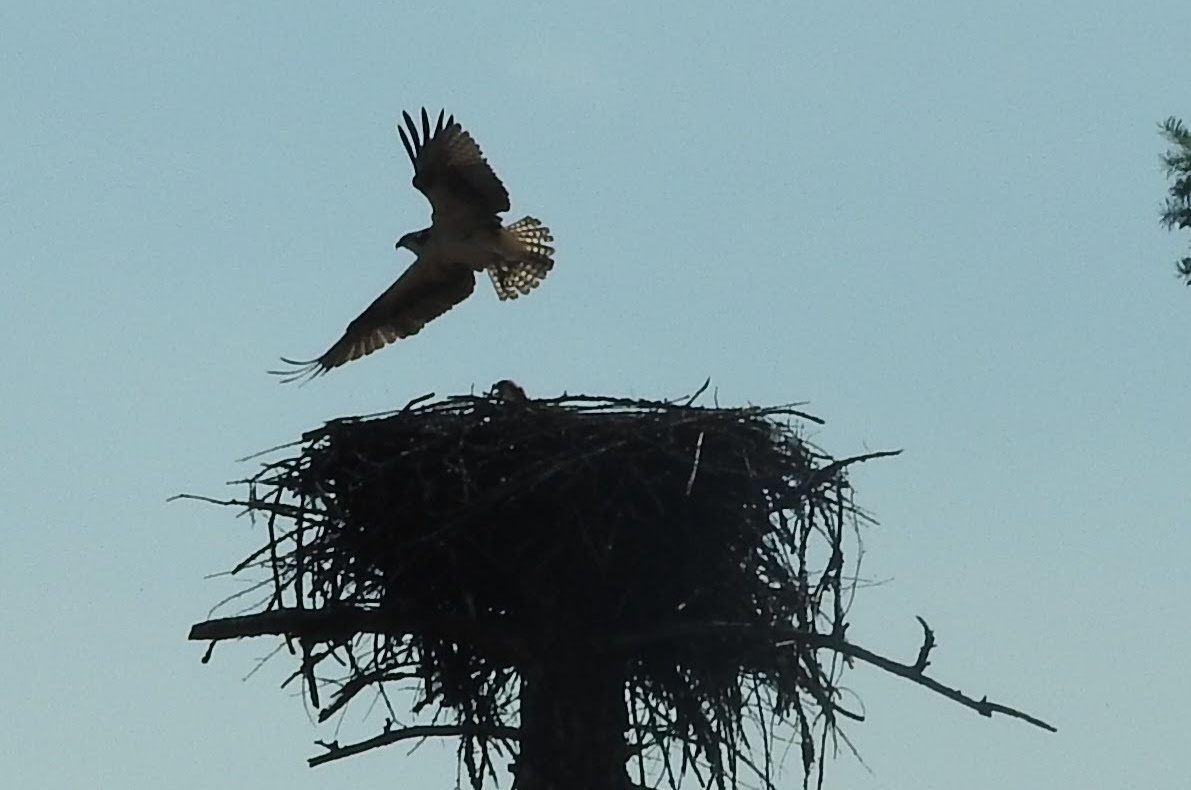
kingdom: Animalia
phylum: Chordata
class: Aves
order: Accipitriformes
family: Pandionidae
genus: Pandion
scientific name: Pandion haliaetus
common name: Osprey
